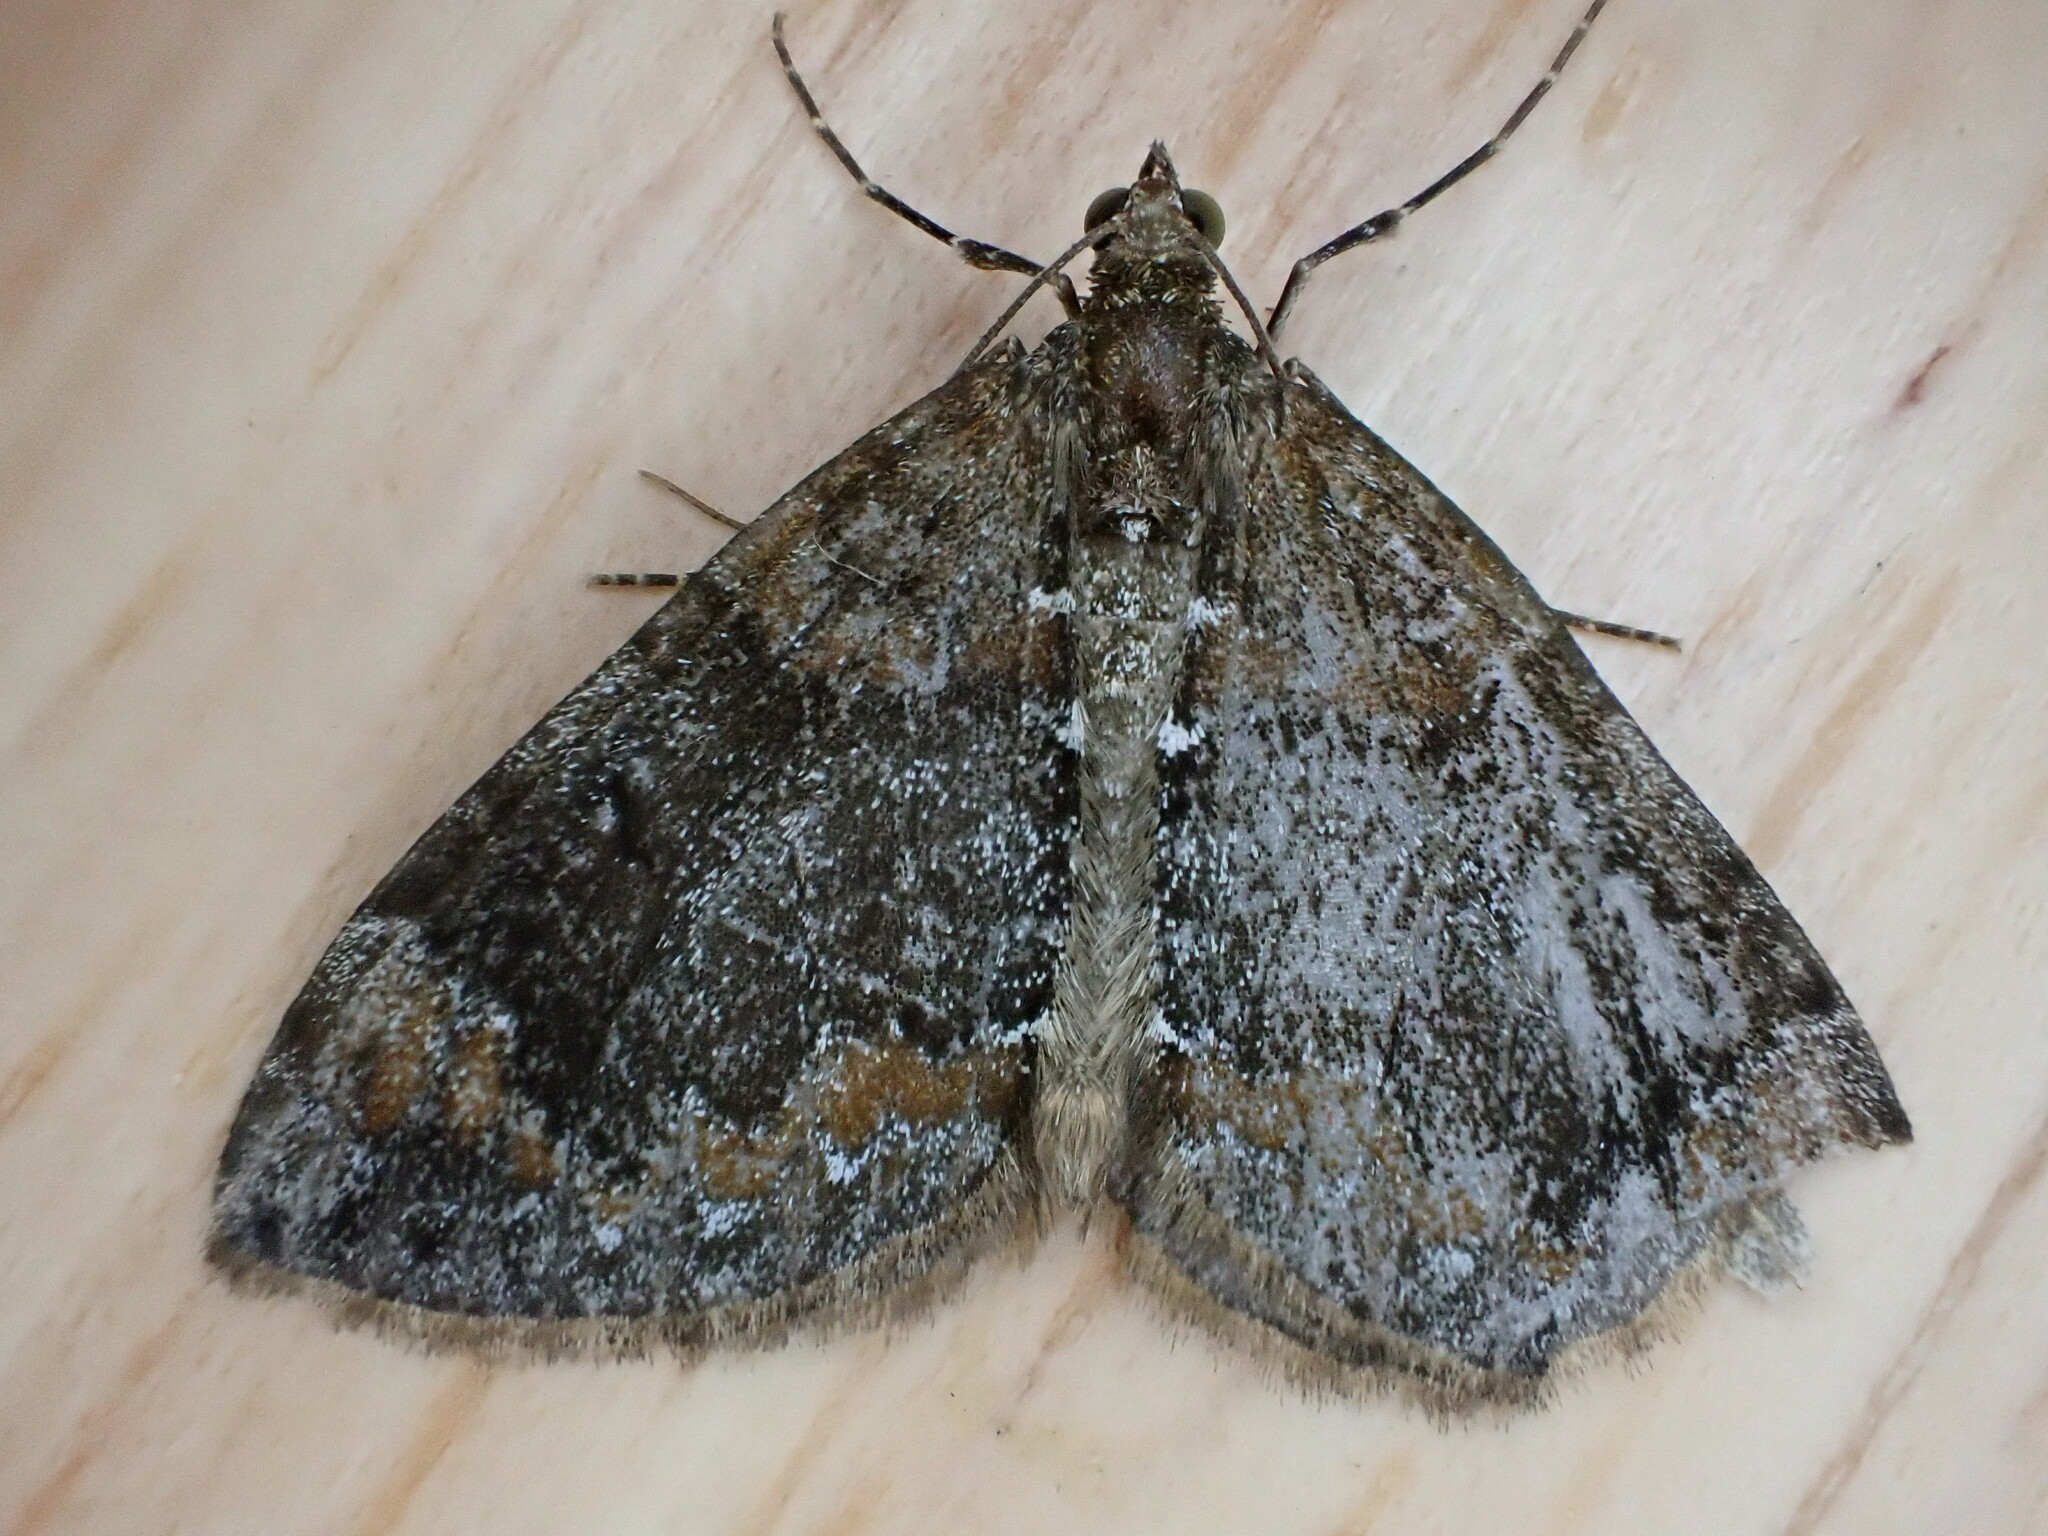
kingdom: Animalia
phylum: Arthropoda
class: Insecta
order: Lepidoptera
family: Geometridae
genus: Dysstroma
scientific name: Dysstroma truncata
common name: Common marbled carpet
